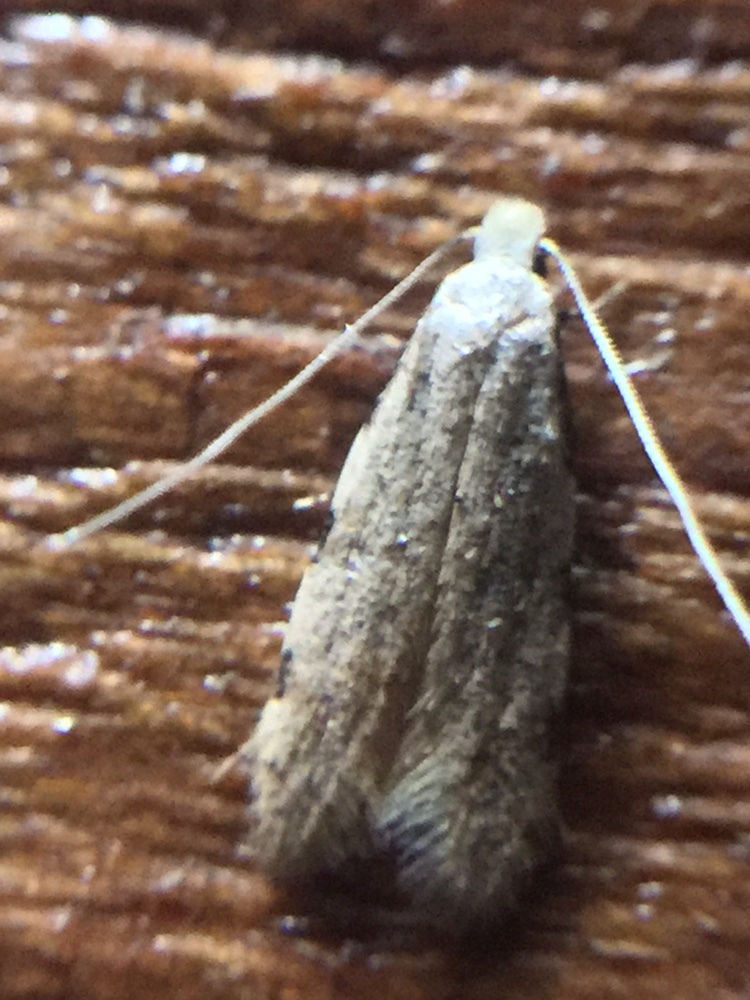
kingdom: Animalia
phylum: Arthropoda
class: Insecta
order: Lepidoptera
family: Tineidae
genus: Endophthora
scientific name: Endophthora omogramma
